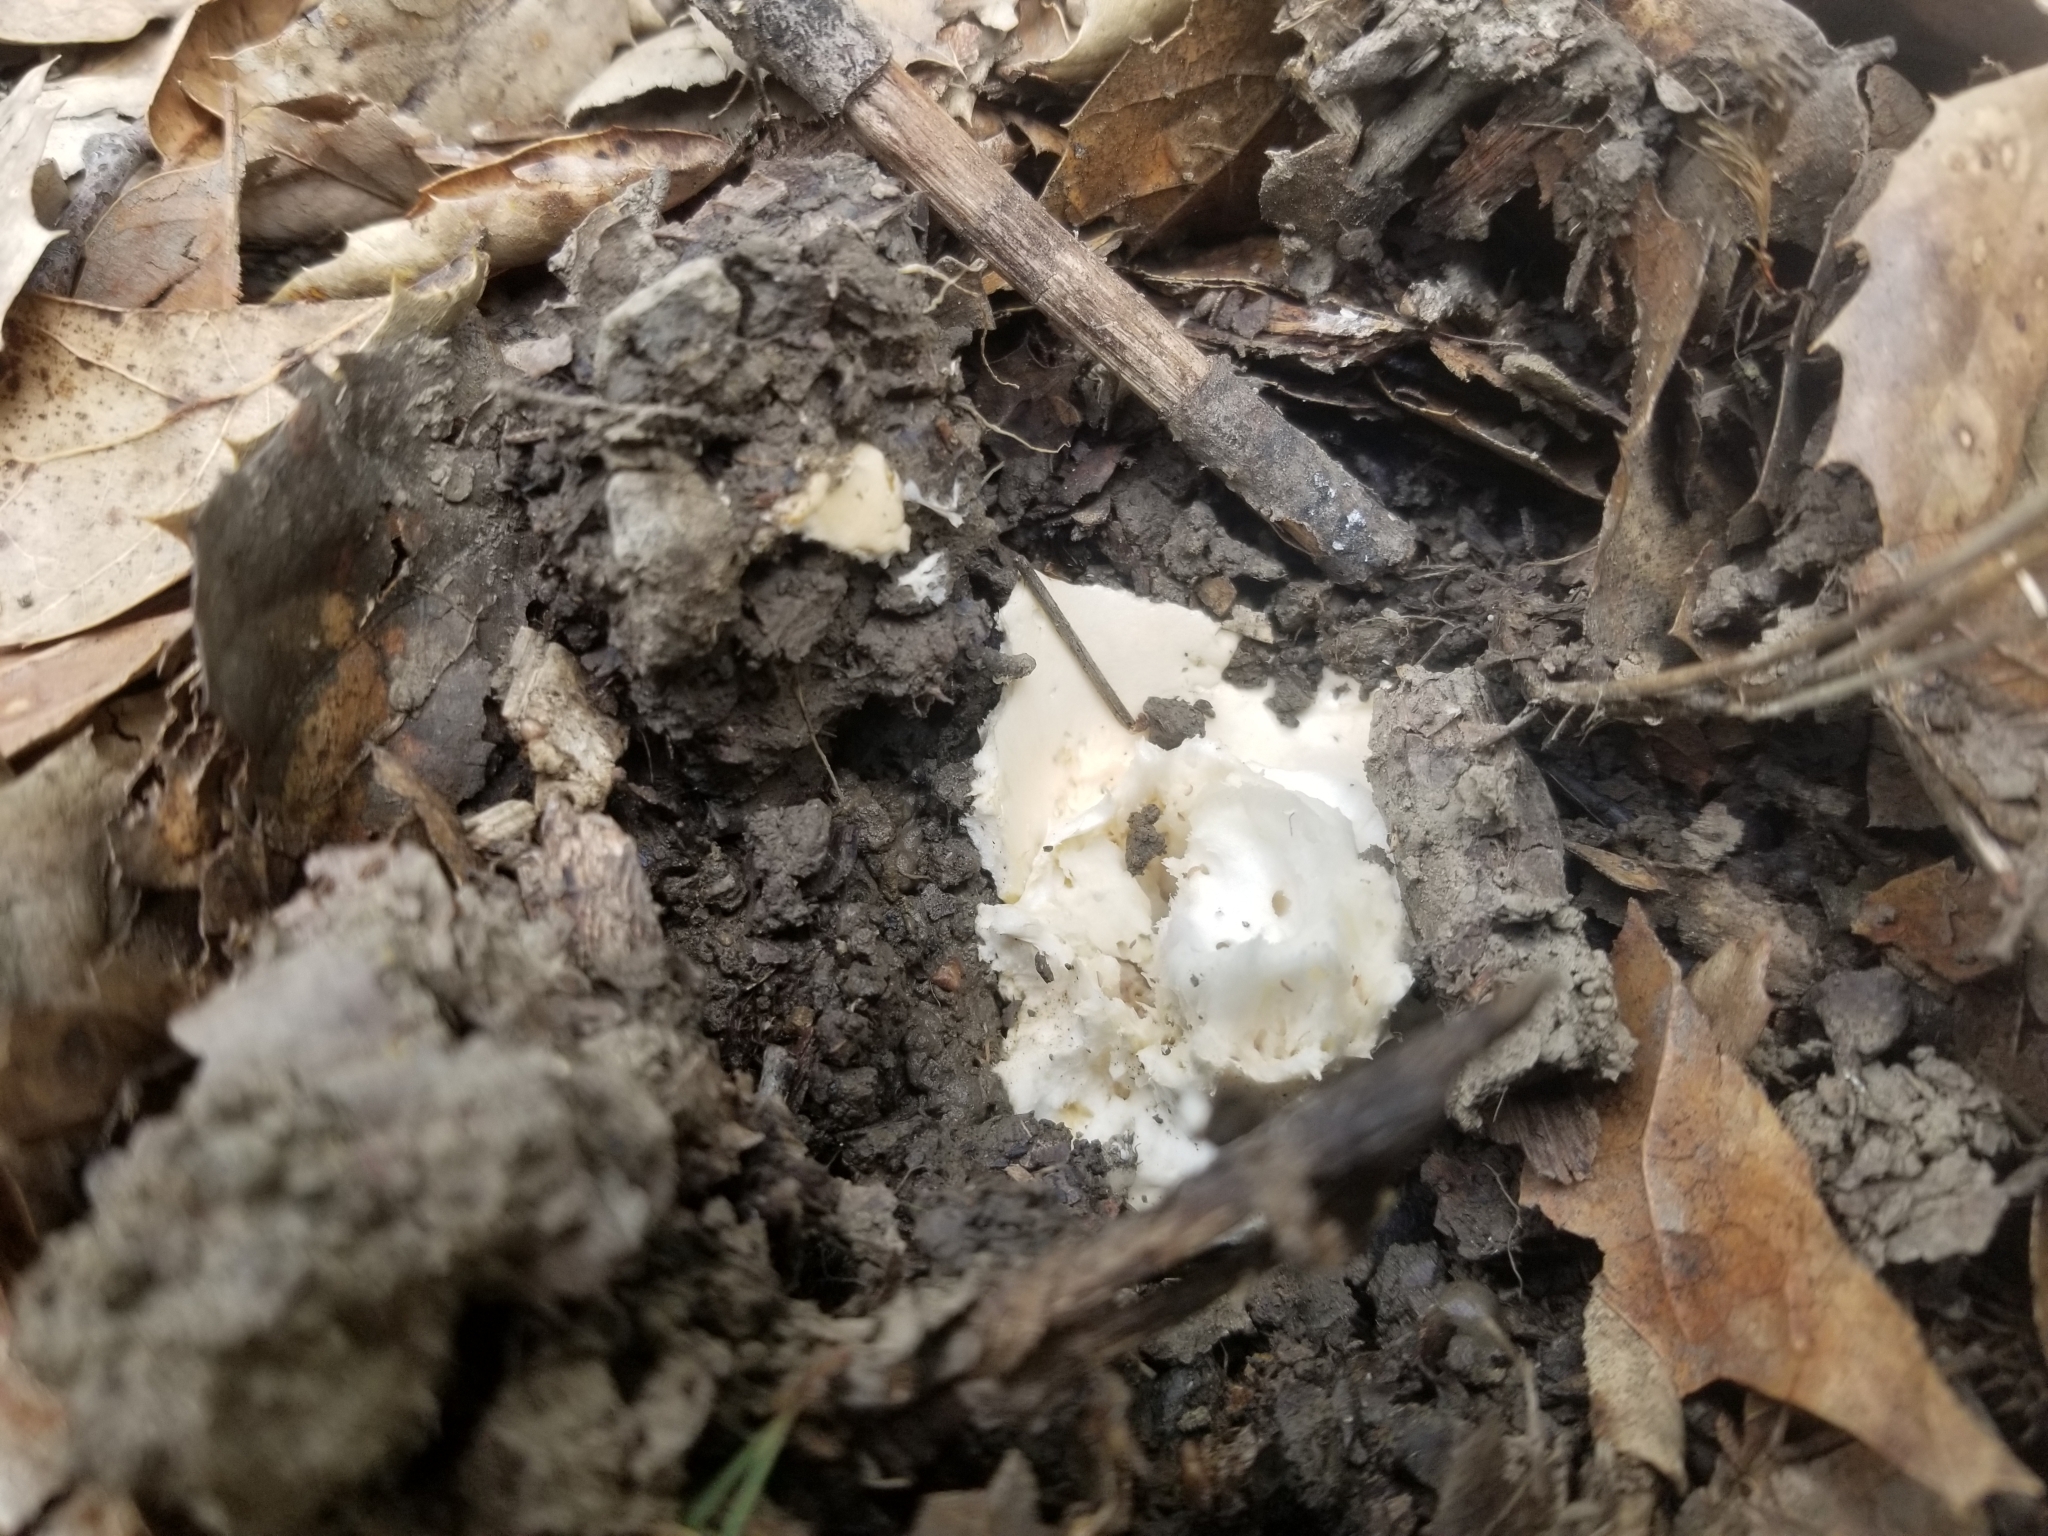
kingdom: Fungi
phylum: Basidiomycota
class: Agaricomycetes
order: Agaricales
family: Amanitaceae
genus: Amanita
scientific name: Amanita velosa
